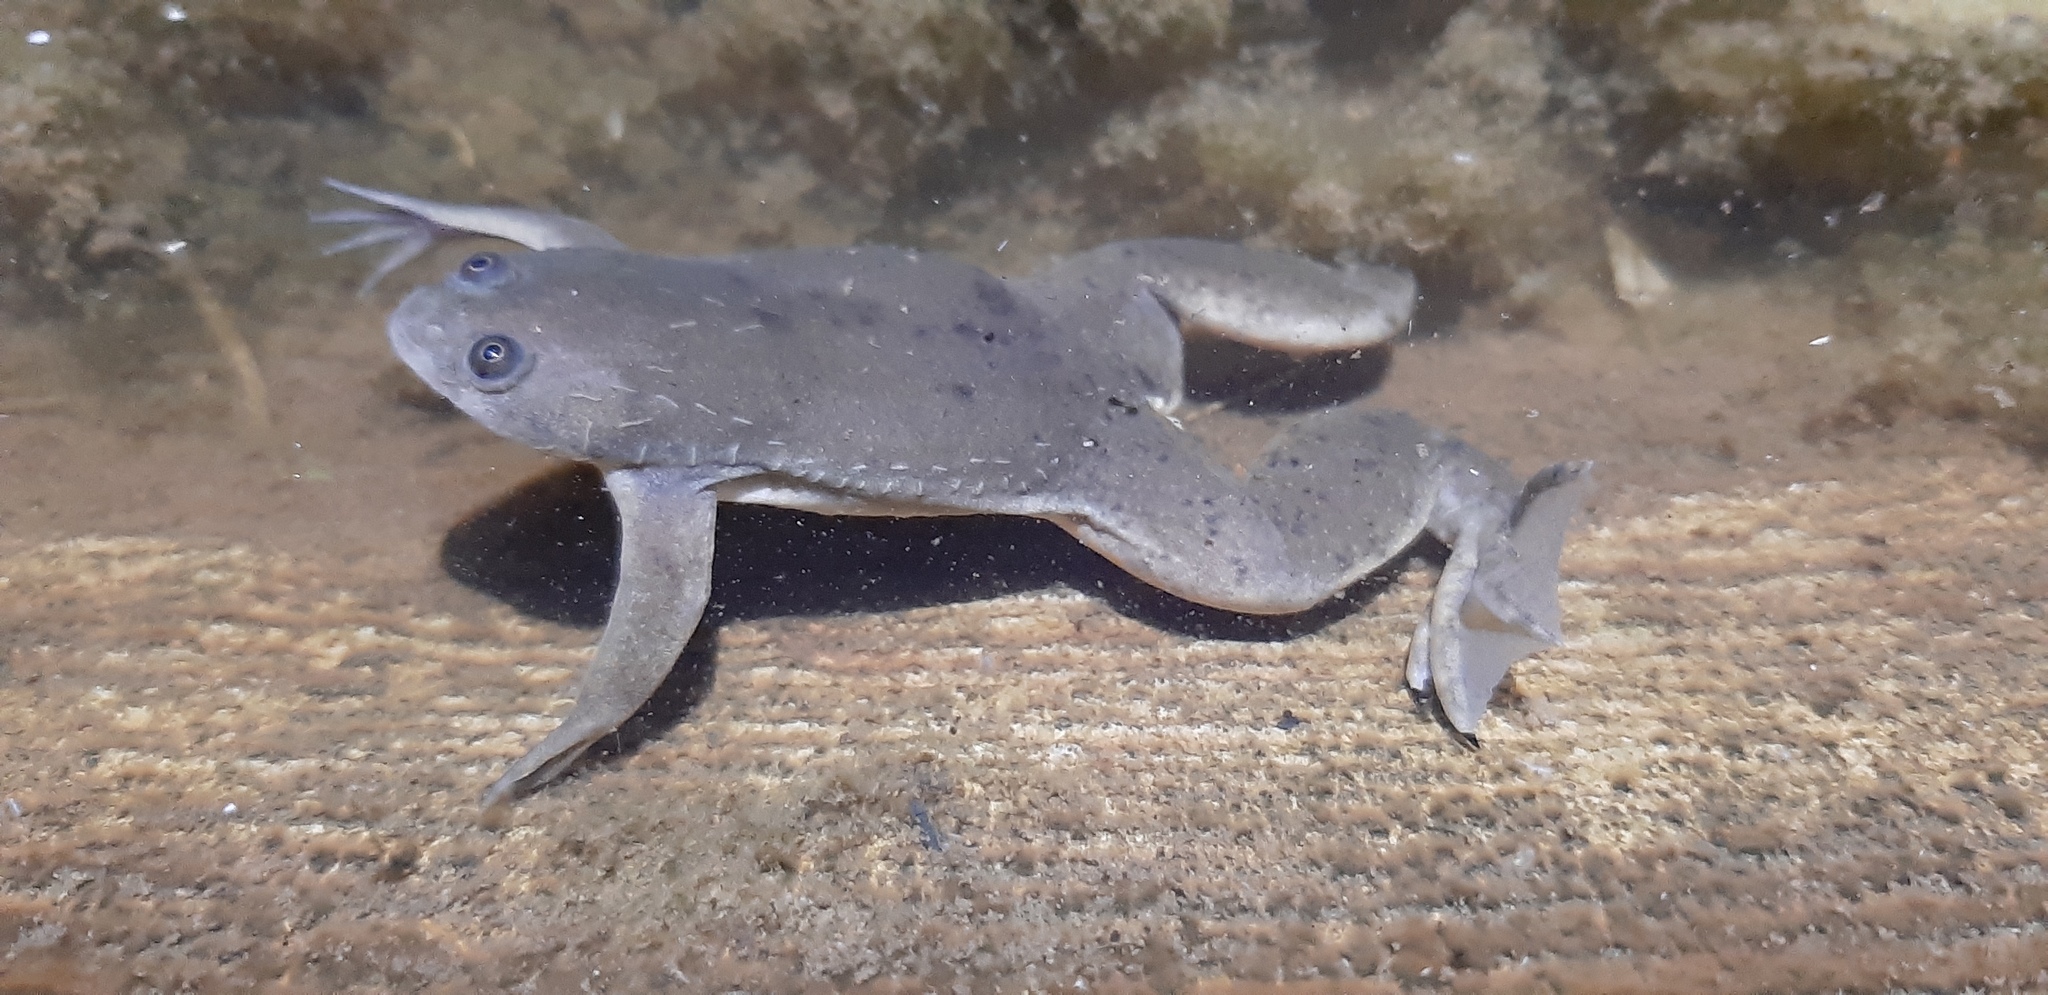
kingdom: Animalia
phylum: Chordata
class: Amphibia
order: Anura
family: Pipidae
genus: Xenopus
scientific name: Xenopus laevis
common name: African clawed frog
